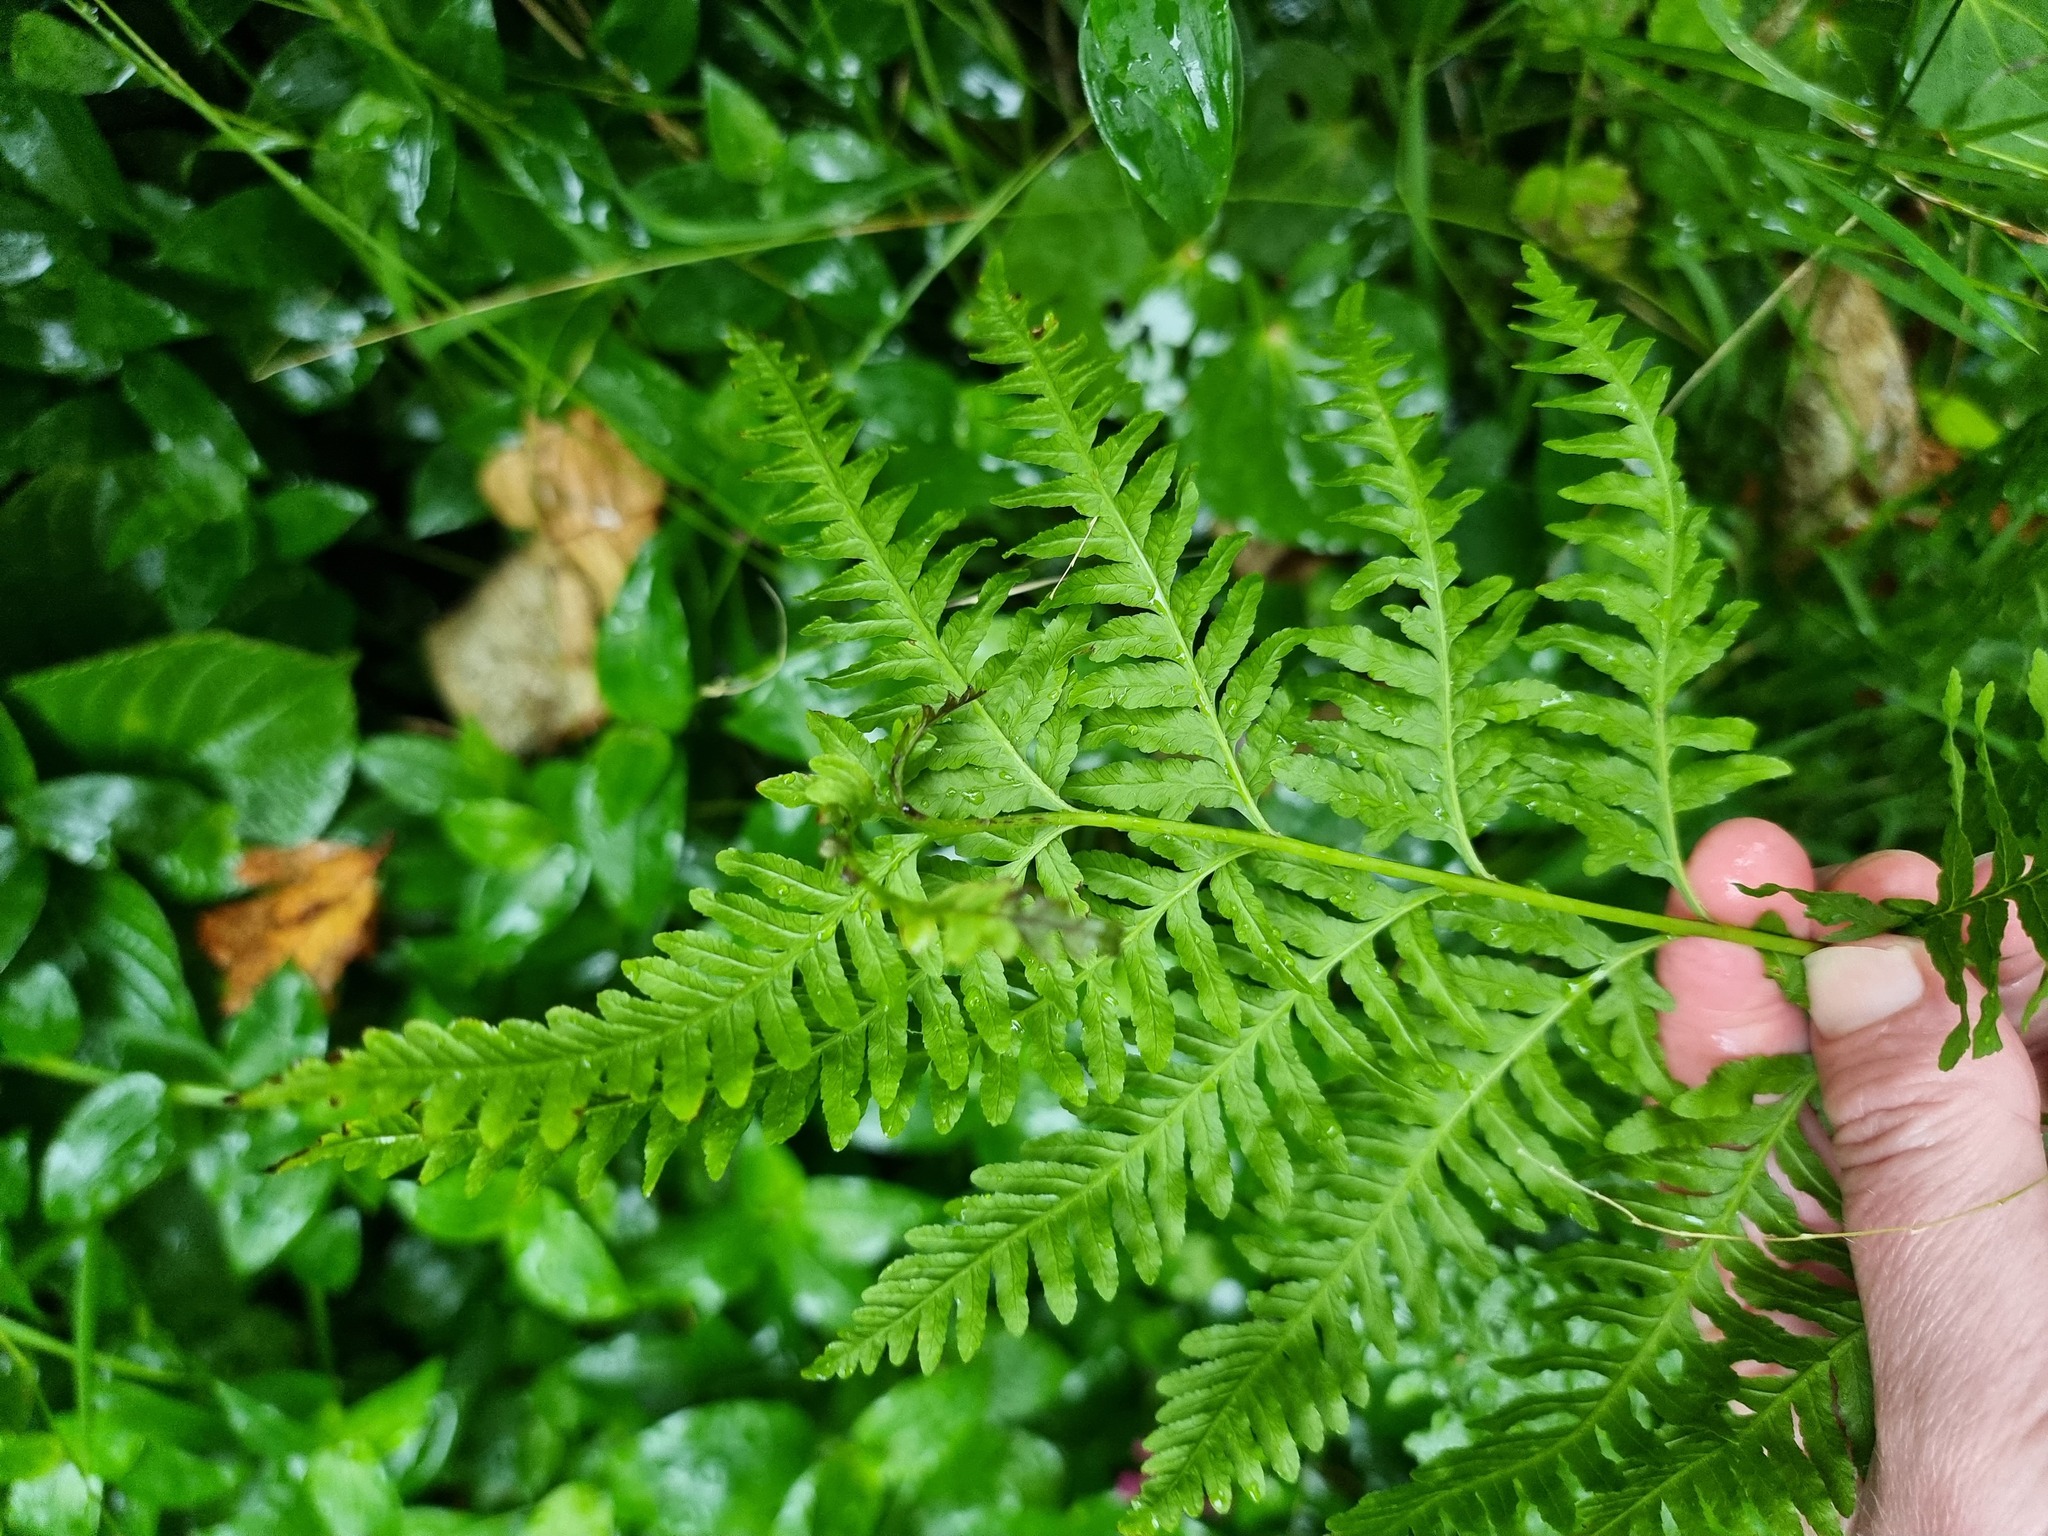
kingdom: Plantae
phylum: Tracheophyta
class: Polypodiopsida
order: Polypodiales
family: Pteridaceae
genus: Pteris
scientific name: Pteris tremula
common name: Australian brake
